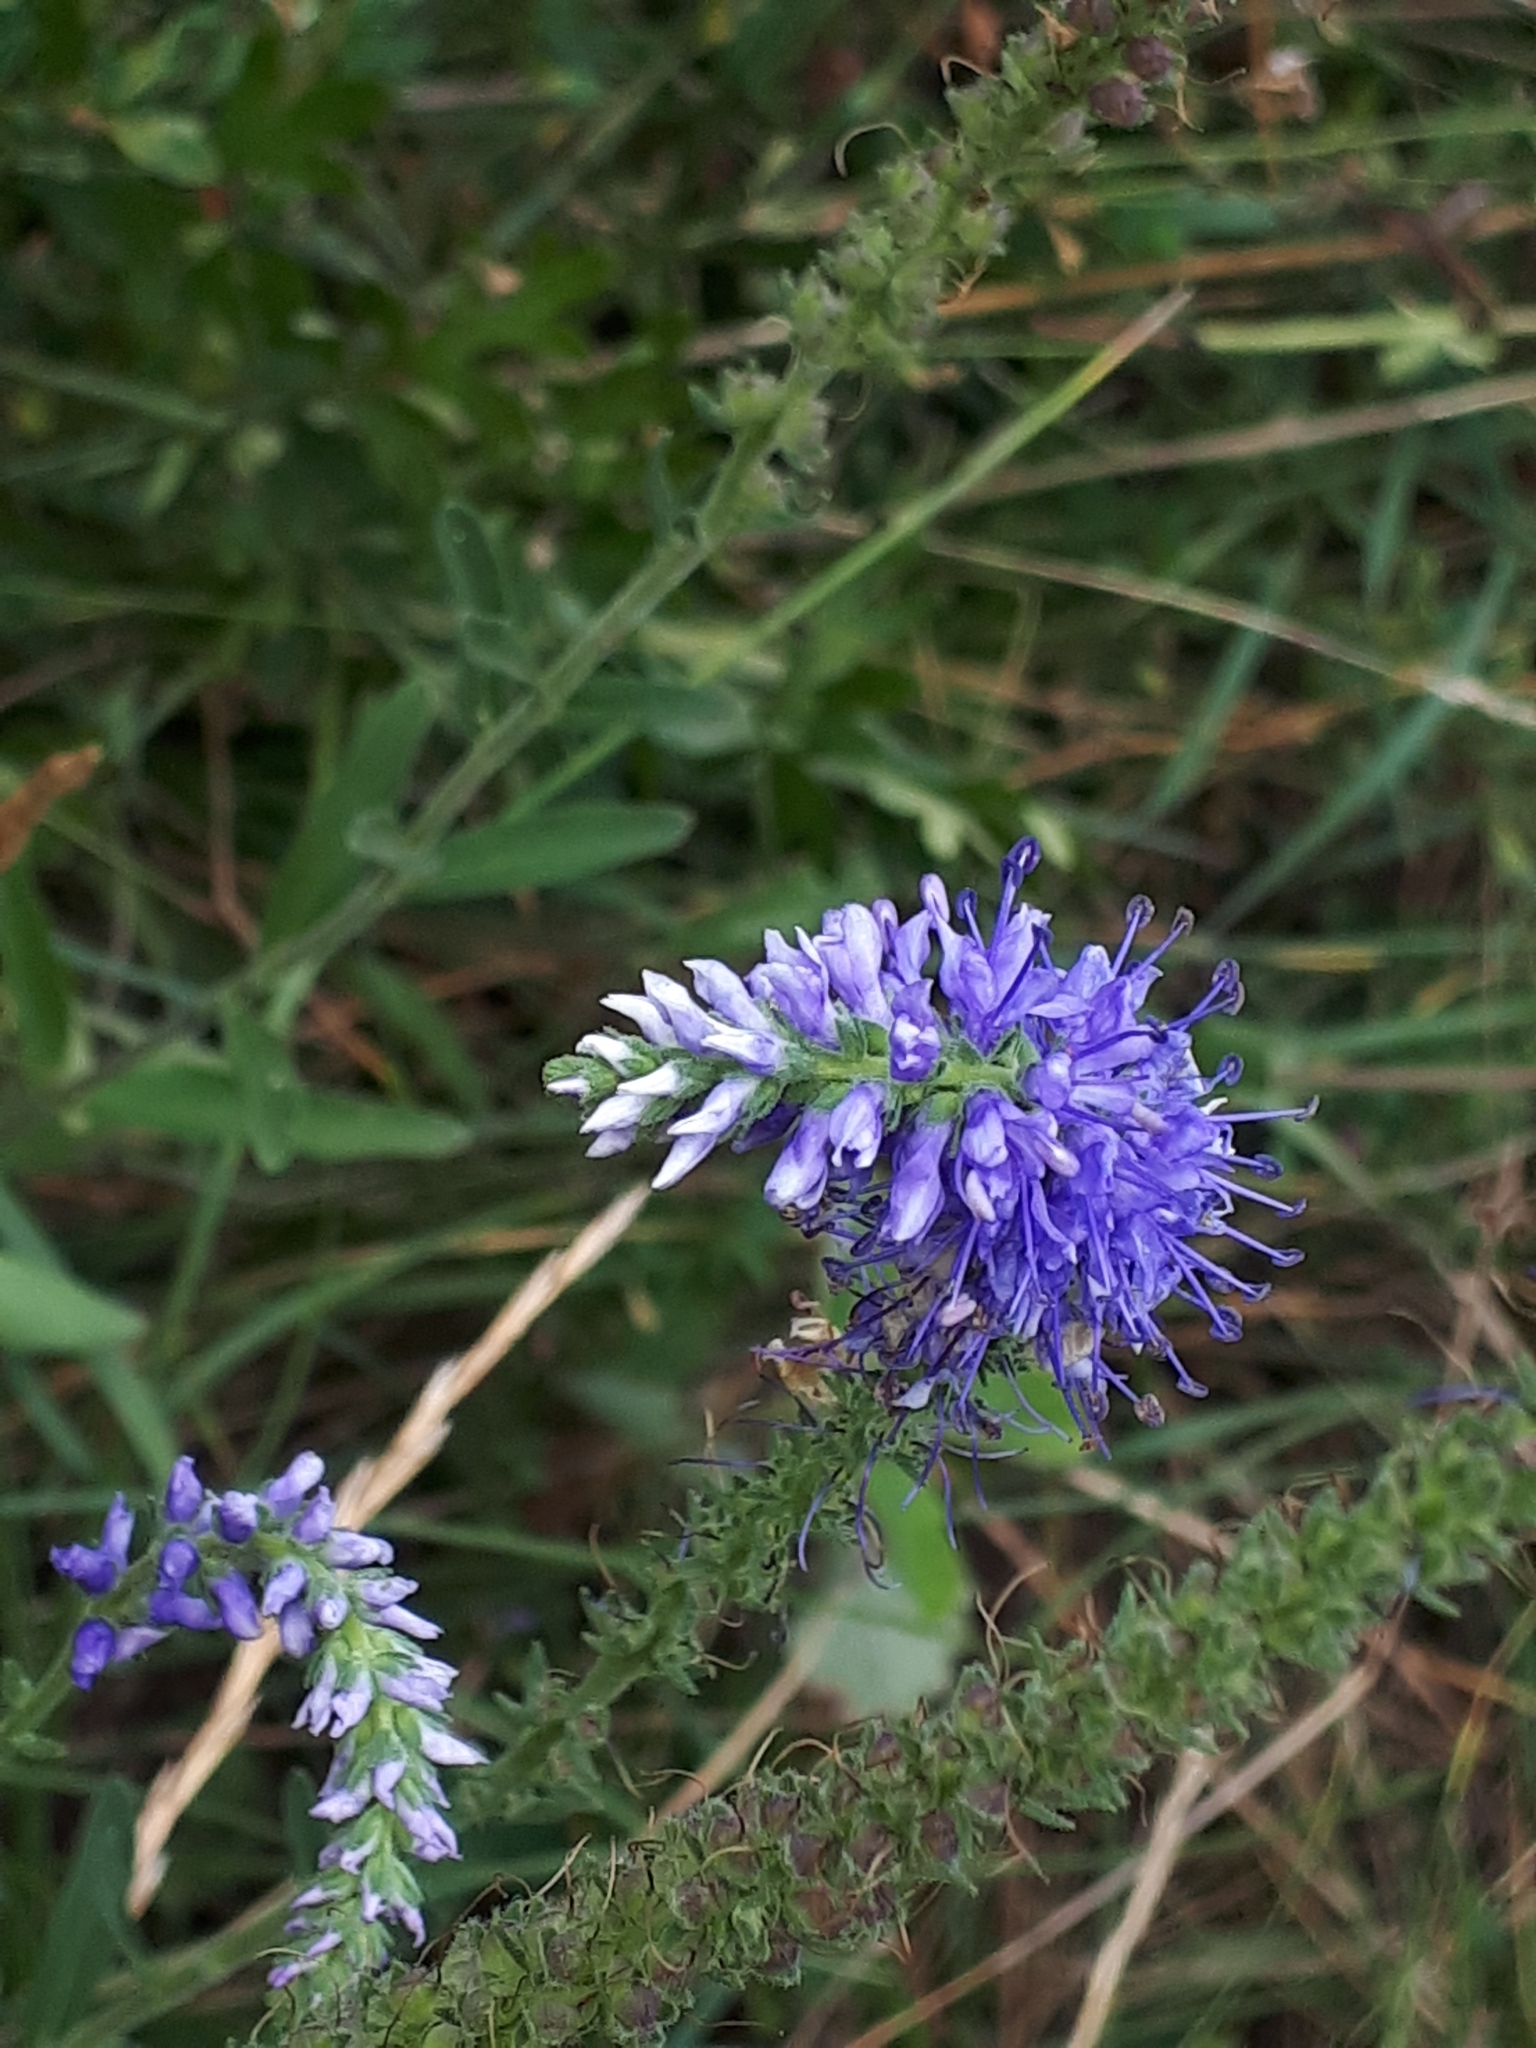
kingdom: Plantae
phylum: Tracheophyta
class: Magnoliopsida
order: Lamiales
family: Plantaginaceae
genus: Veronica
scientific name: Veronica spicata
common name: Spiked speedwell
